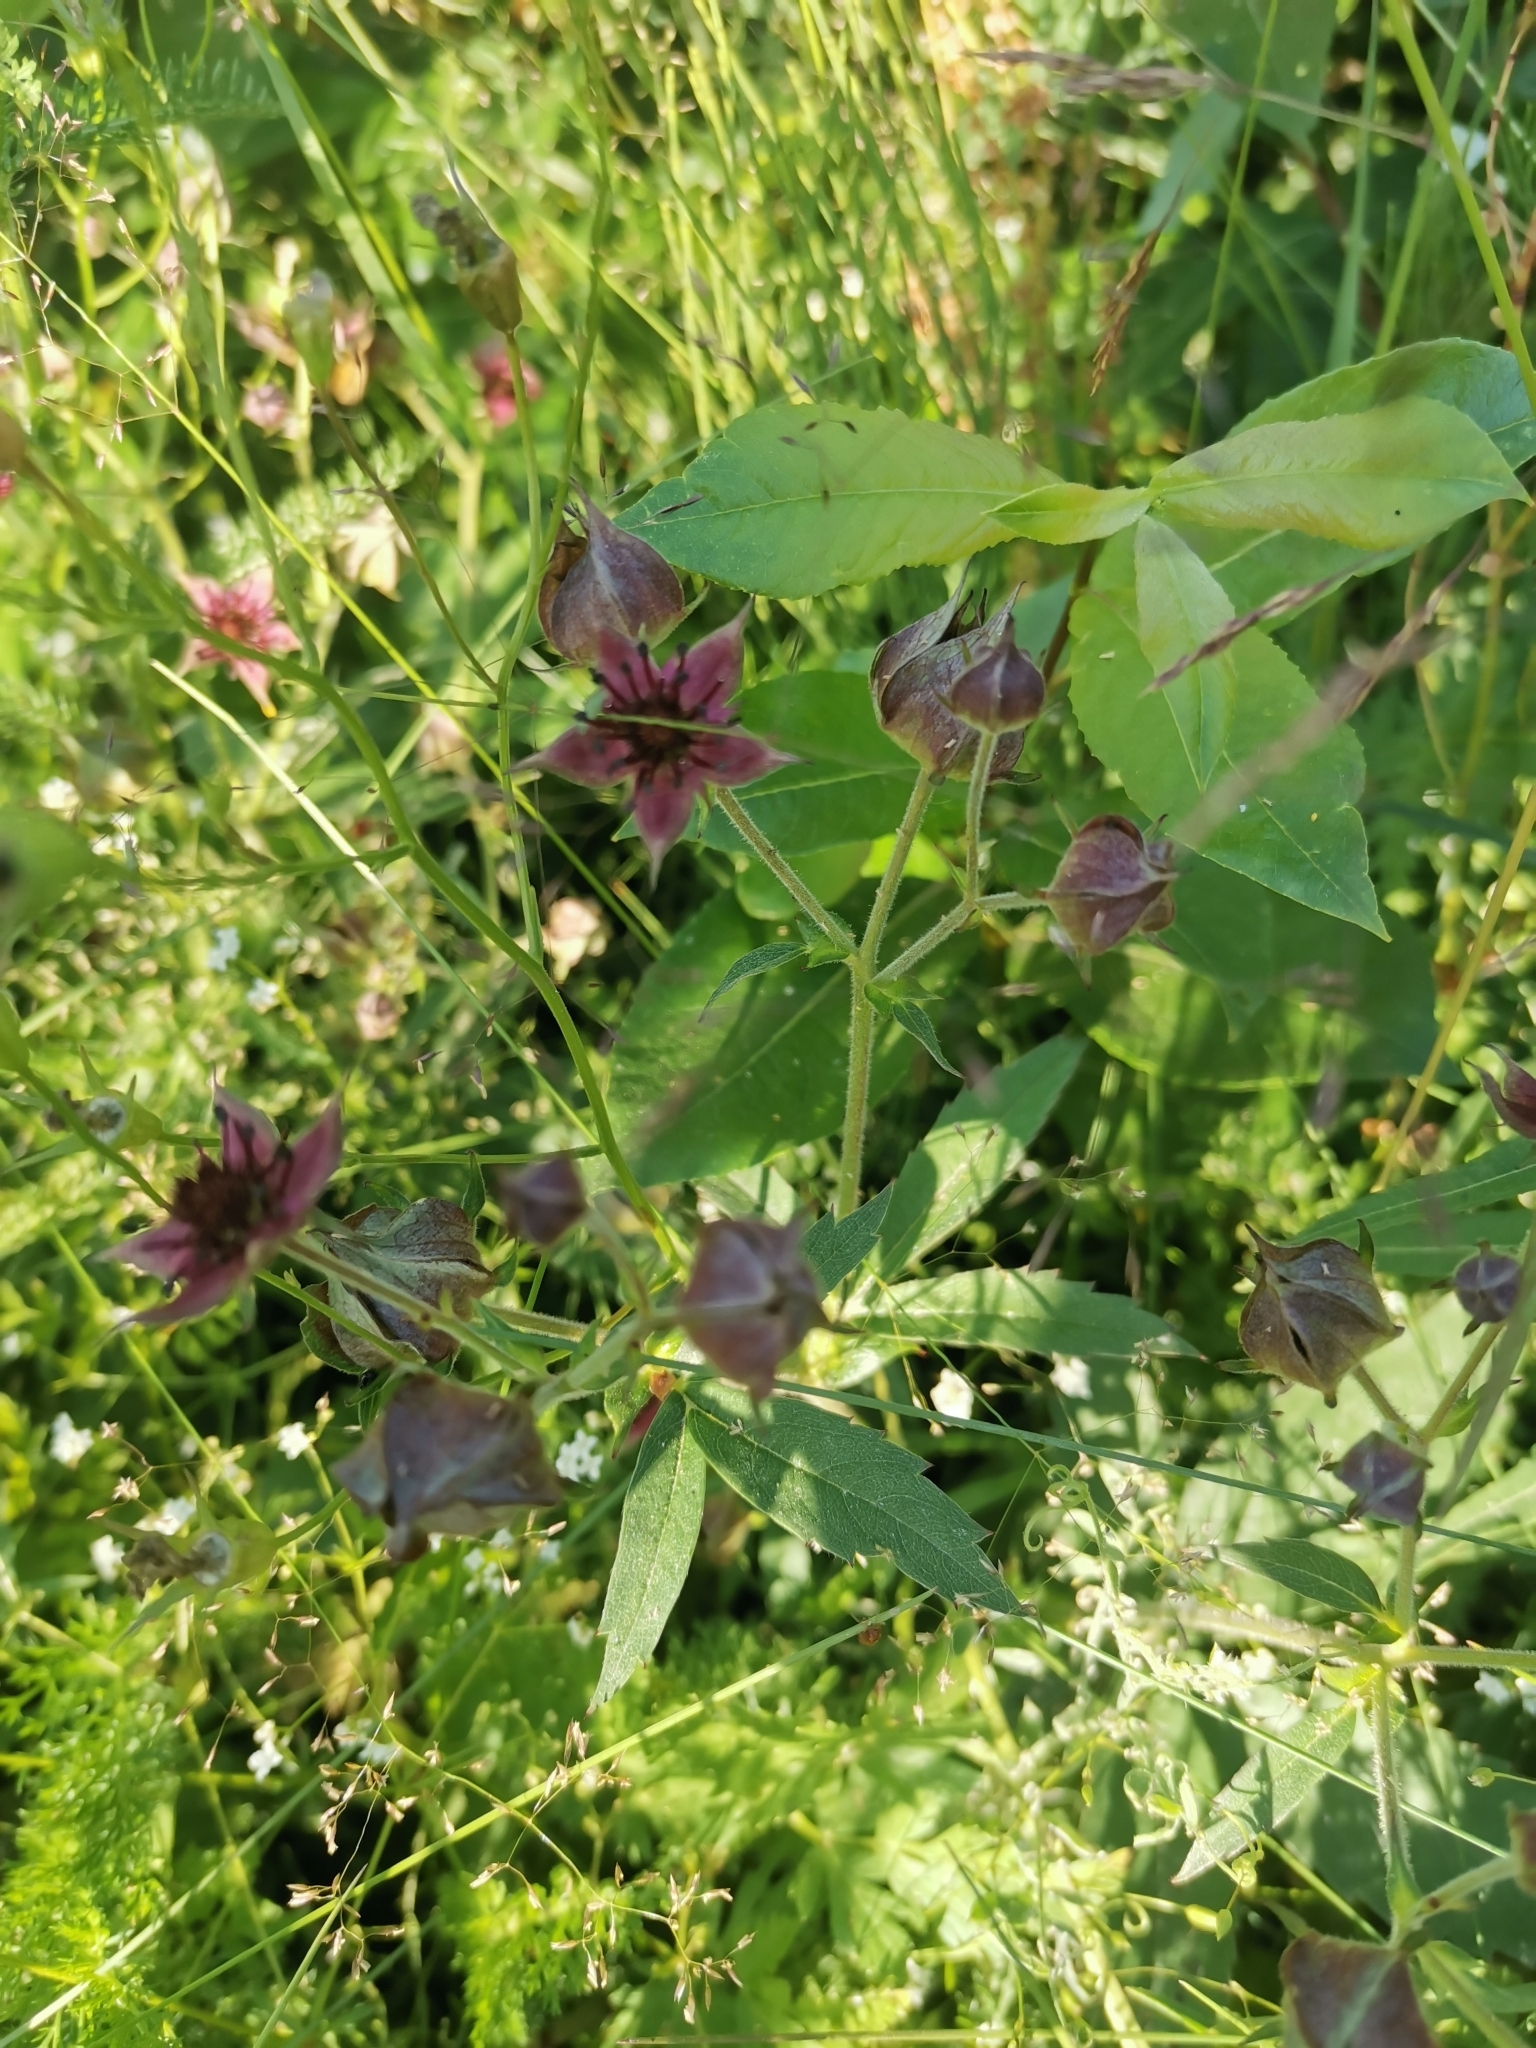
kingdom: Plantae
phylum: Tracheophyta
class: Magnoliopsida
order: Rosales
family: Rosaceae
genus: Comarum
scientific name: Comarum palustre
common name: Marsh cinquefoil
